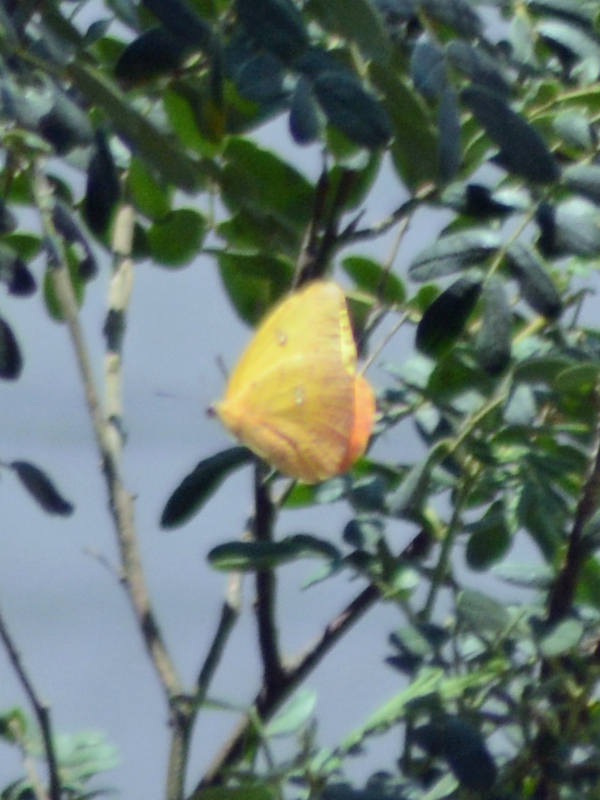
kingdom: Animalia
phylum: Arthropoda
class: Insecta
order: Lepidoptera
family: Pieridae
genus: Phoebis
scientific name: Phoebis philea
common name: Orange-barred giant sulphur
